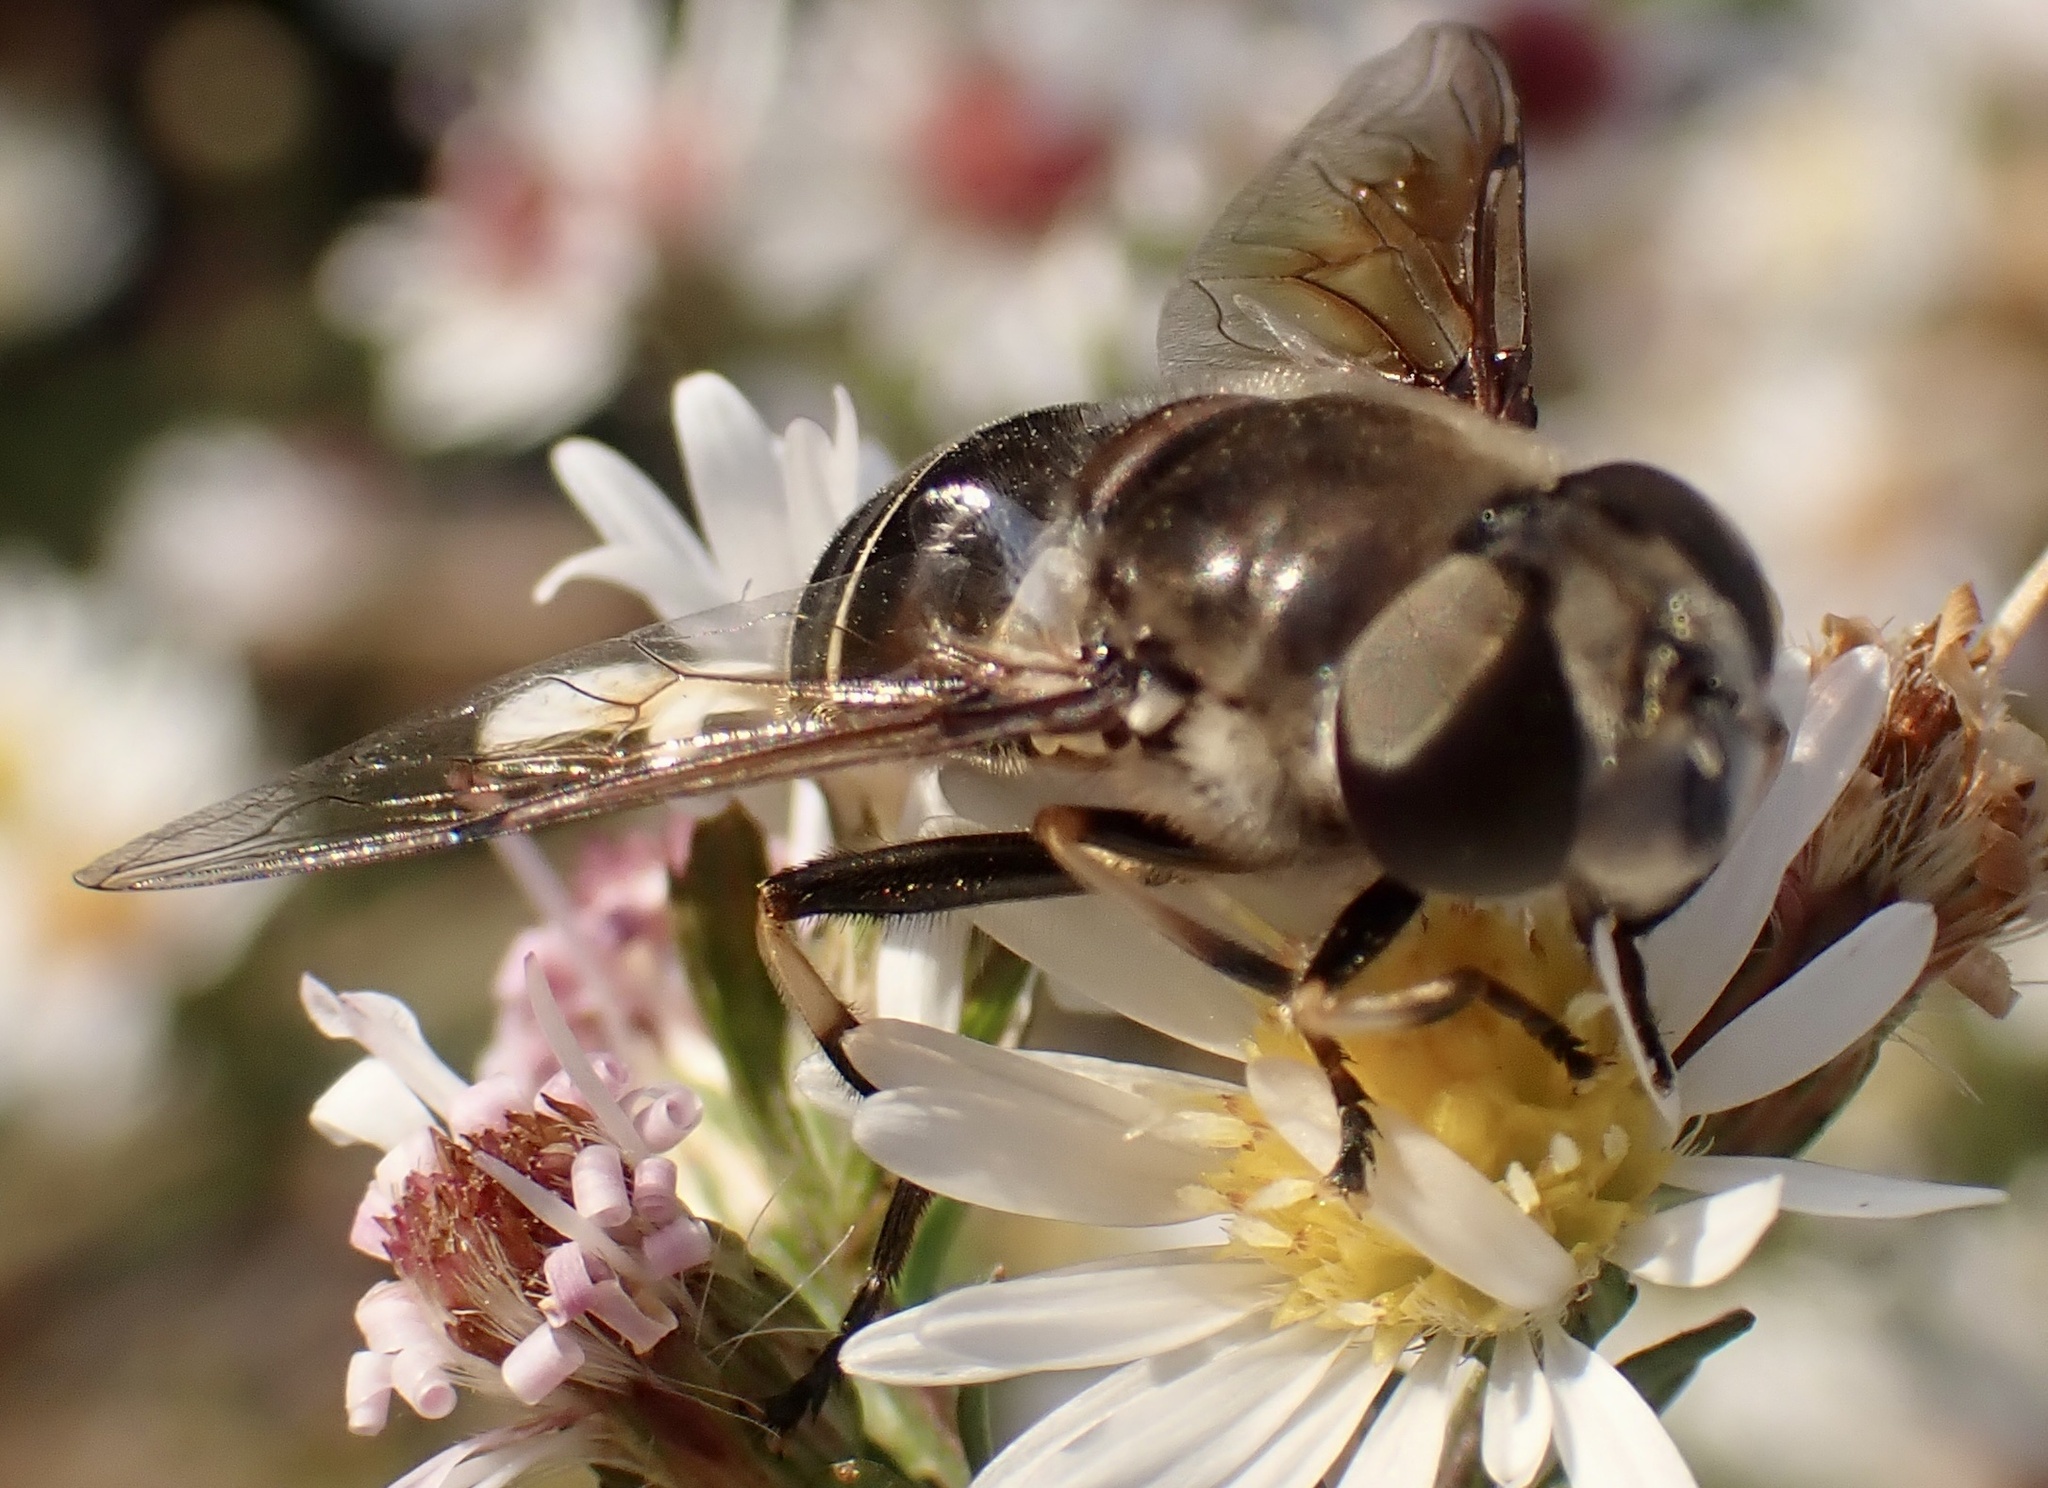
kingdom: Animalia
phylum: Arthropoda
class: Insecta
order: Diptera
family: Syrphidae
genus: Eristalis
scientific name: Eristalis dimidiata
